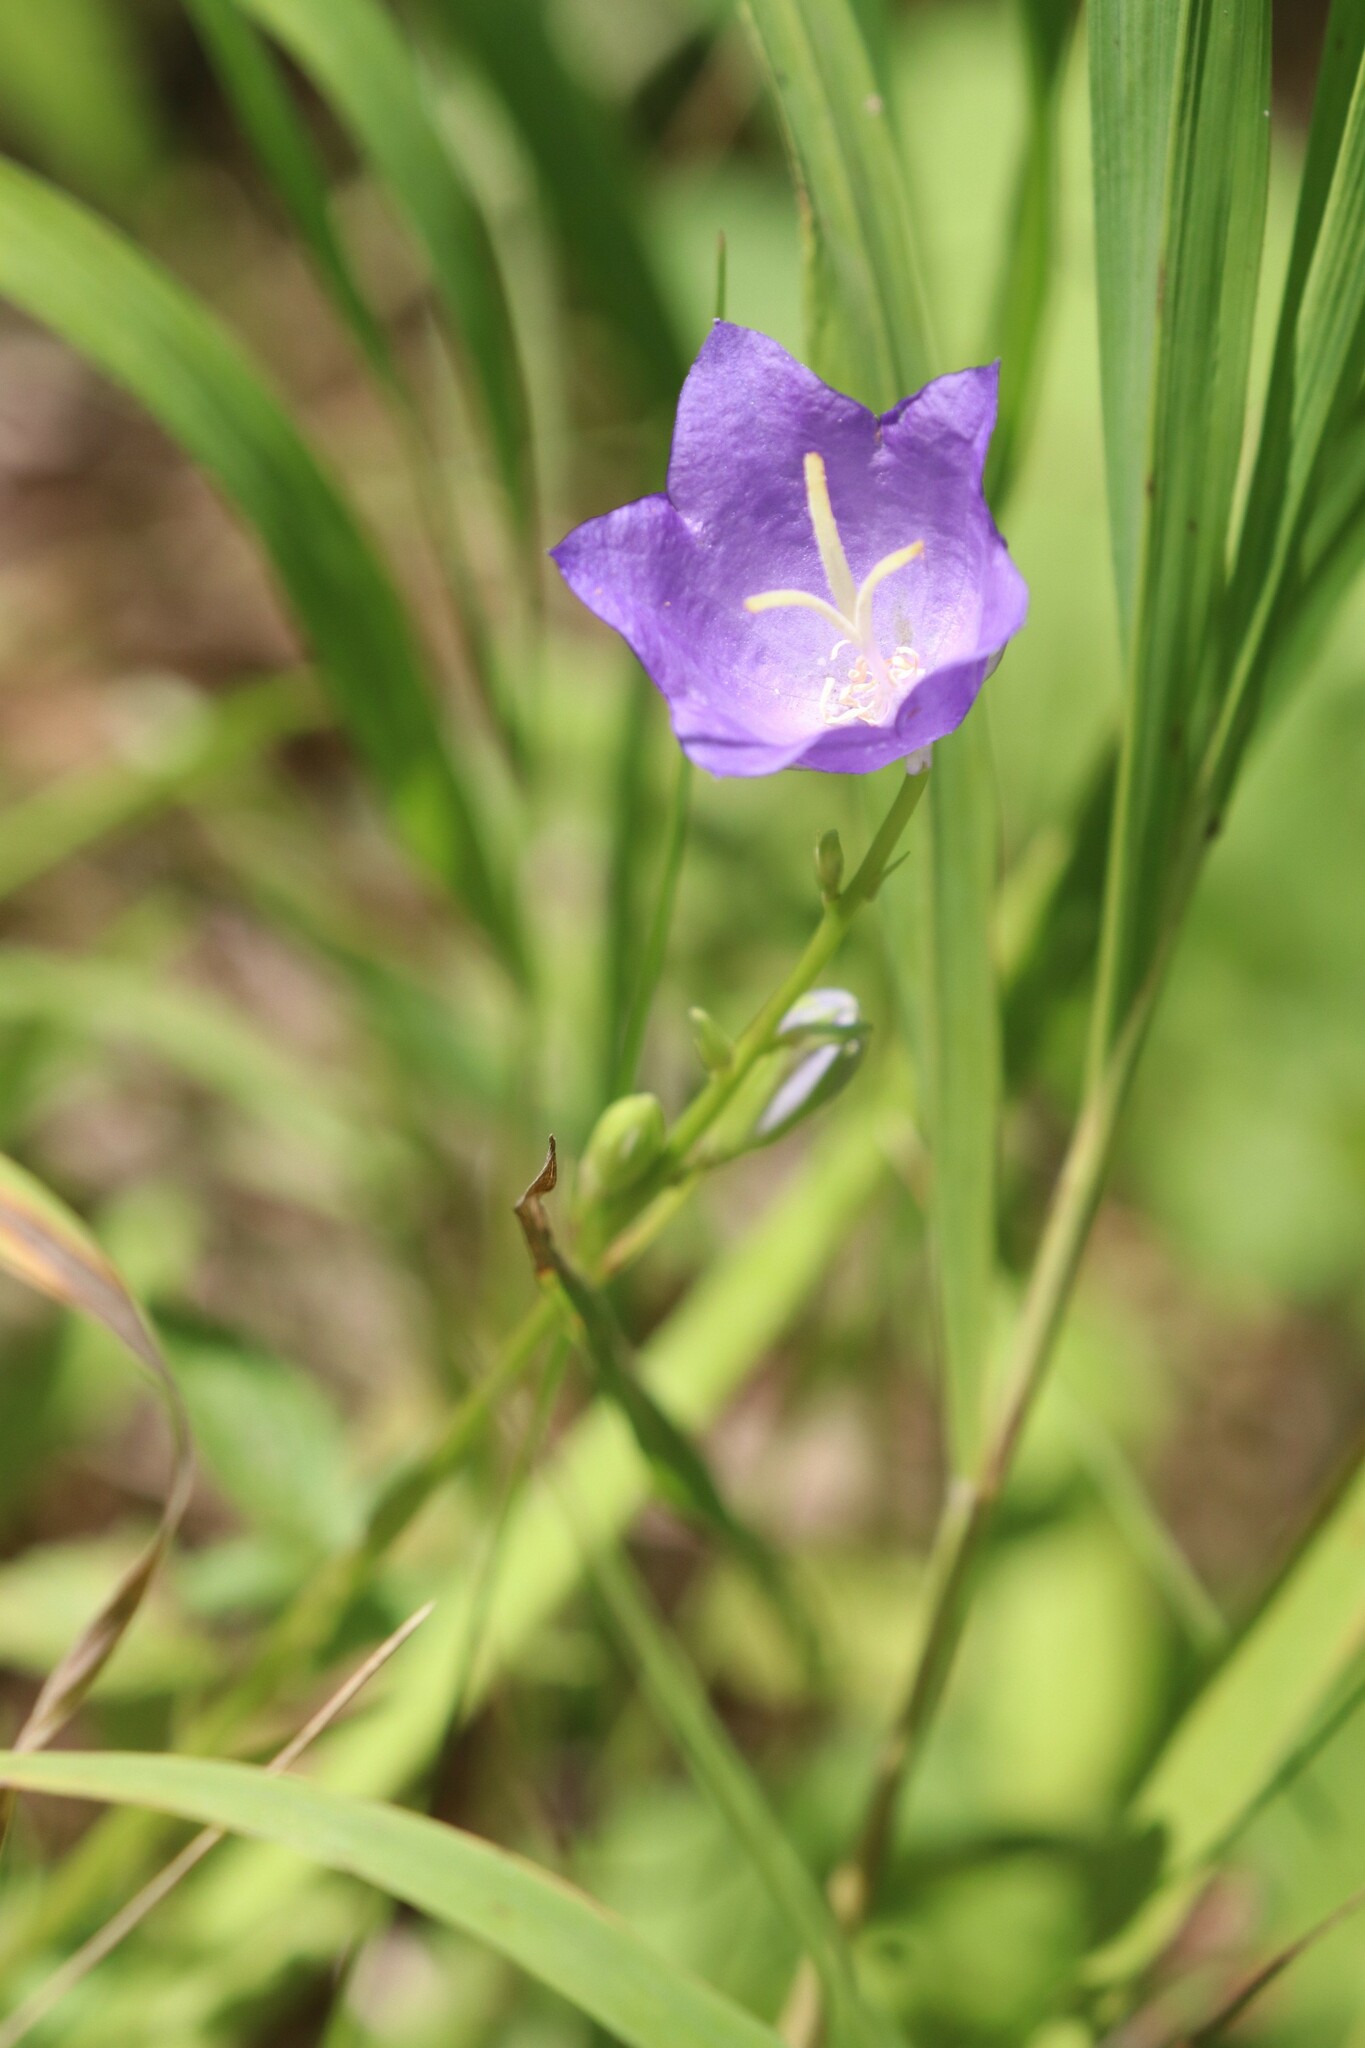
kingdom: Plantae
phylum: Tracheophyta
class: Magnoliopsida
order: Asterales
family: Campanulaceae
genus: Campanula
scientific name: Campanula persicifolia
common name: Peach-leaved bellflower
